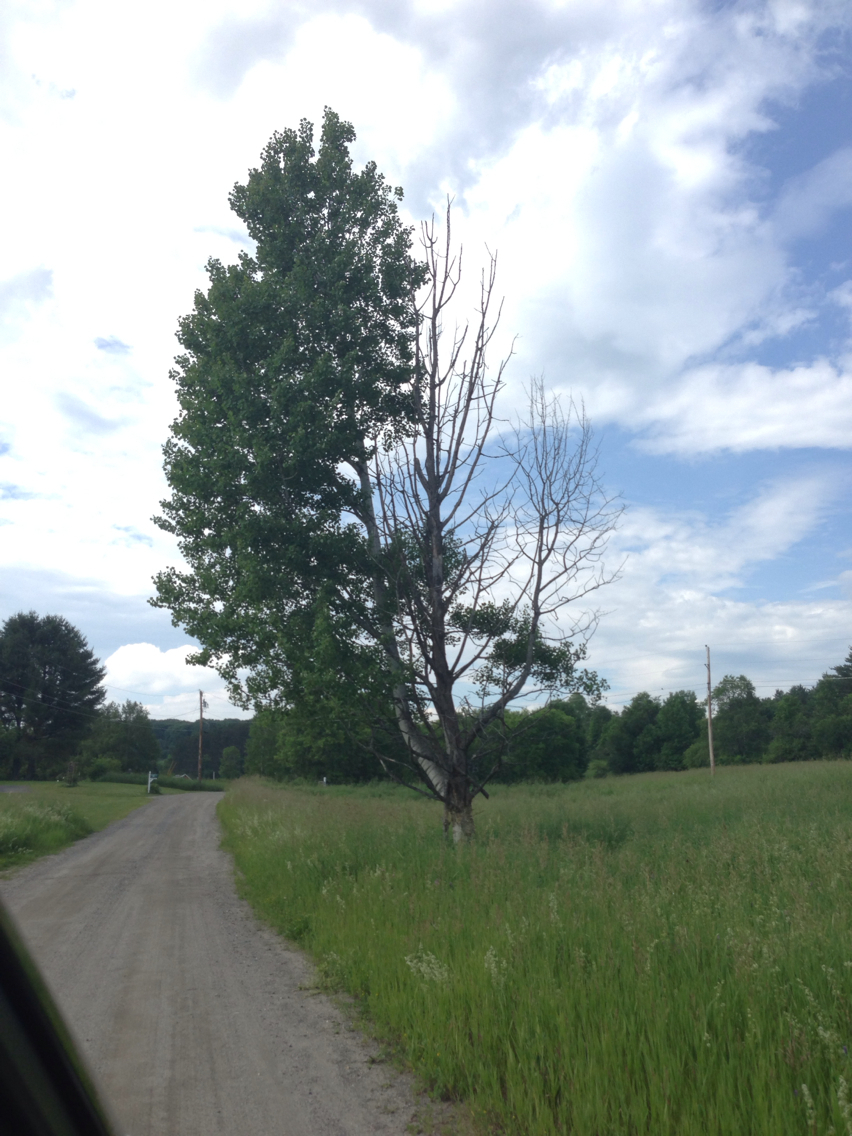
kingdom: Plantae
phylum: Tracheophyta
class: Magnoliopsida
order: Malpighiales
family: Salicaceae
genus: Populus
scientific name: Populus tremuloides
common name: Quaking aspen
